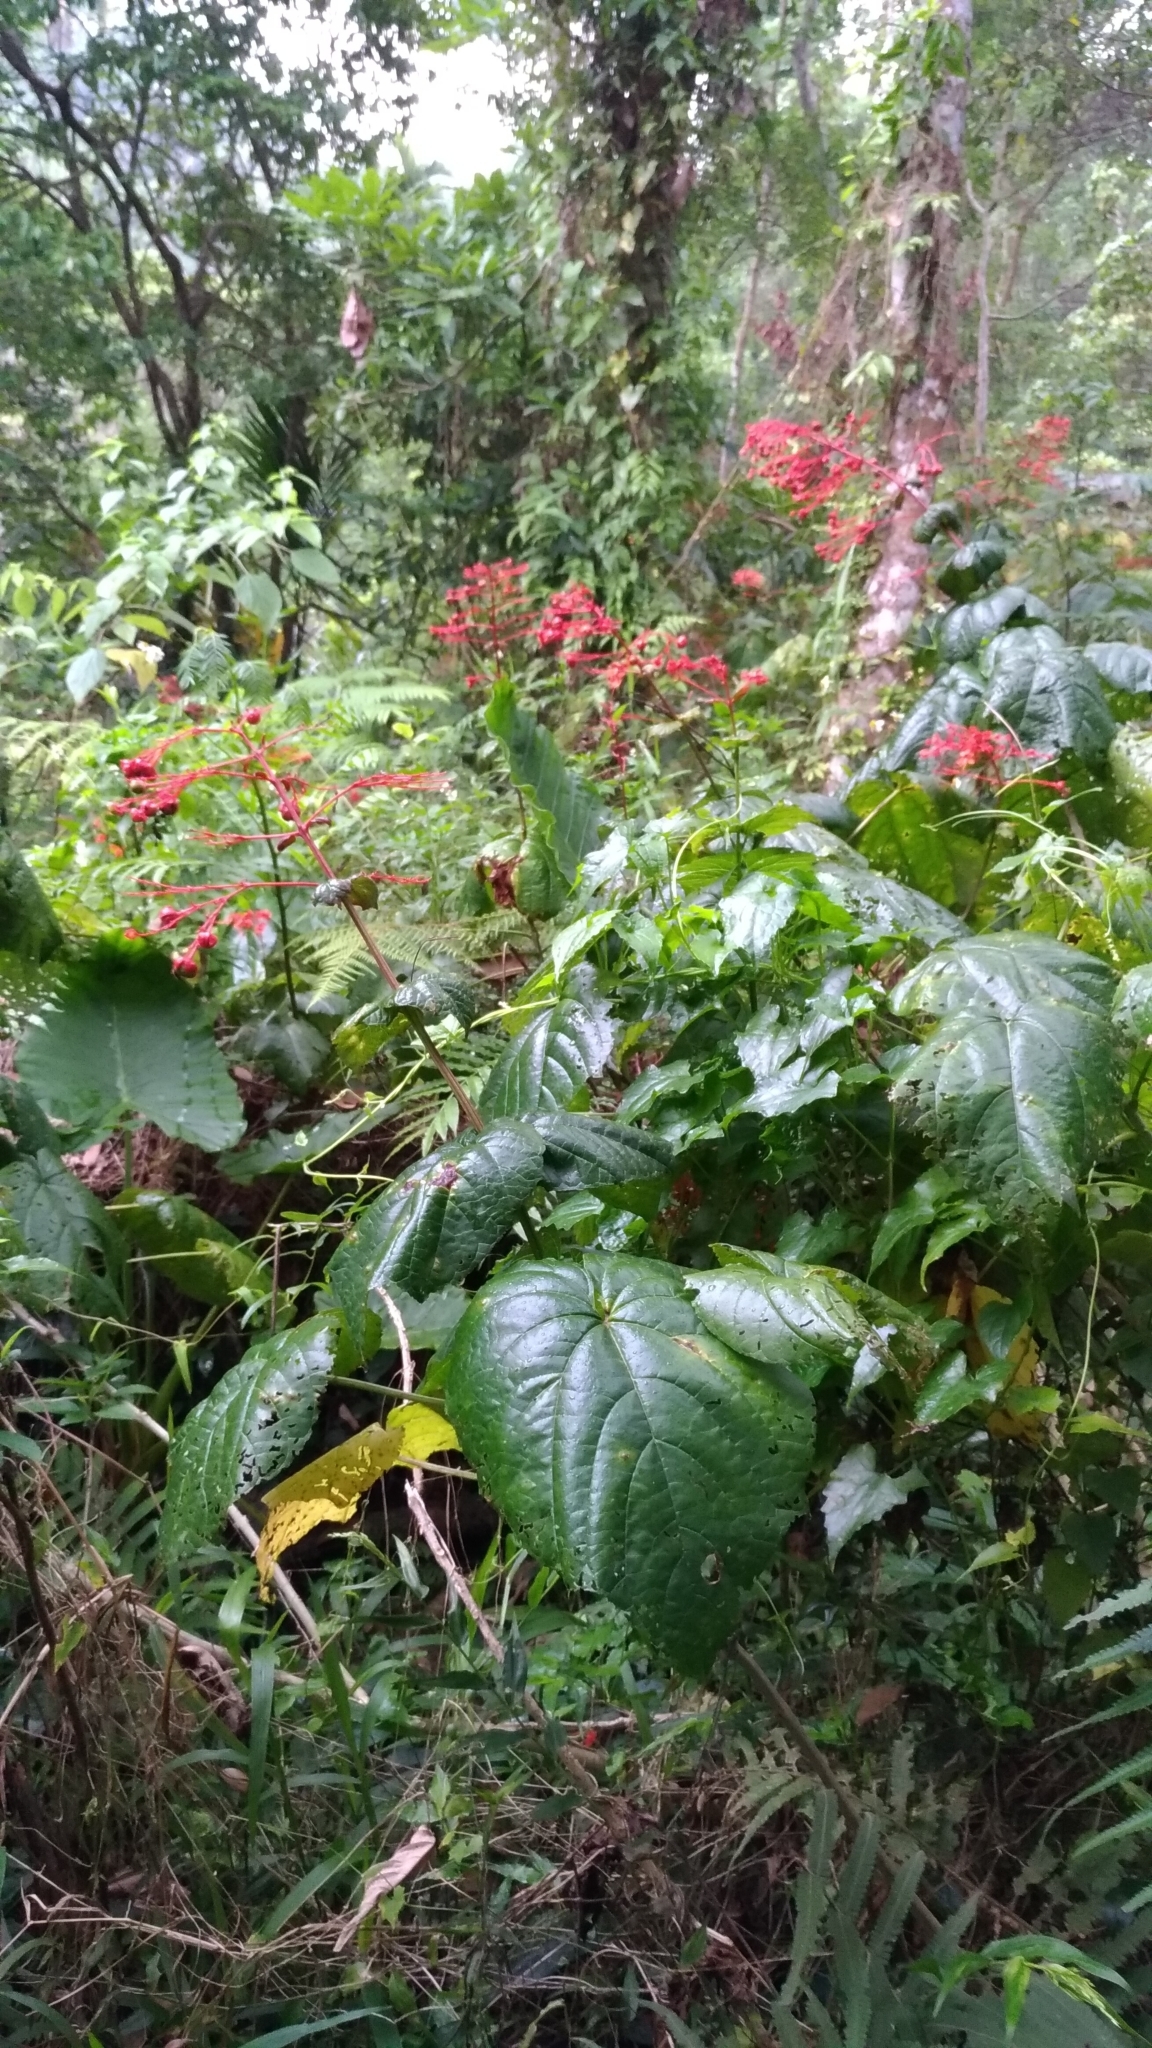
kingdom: Plantae
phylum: Tracheophyta
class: Magnoliopsida
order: Lamiales
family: Lamiaceae
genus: Clerodendrum
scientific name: Clerodendrum japonicum
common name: Japanese glorybower
